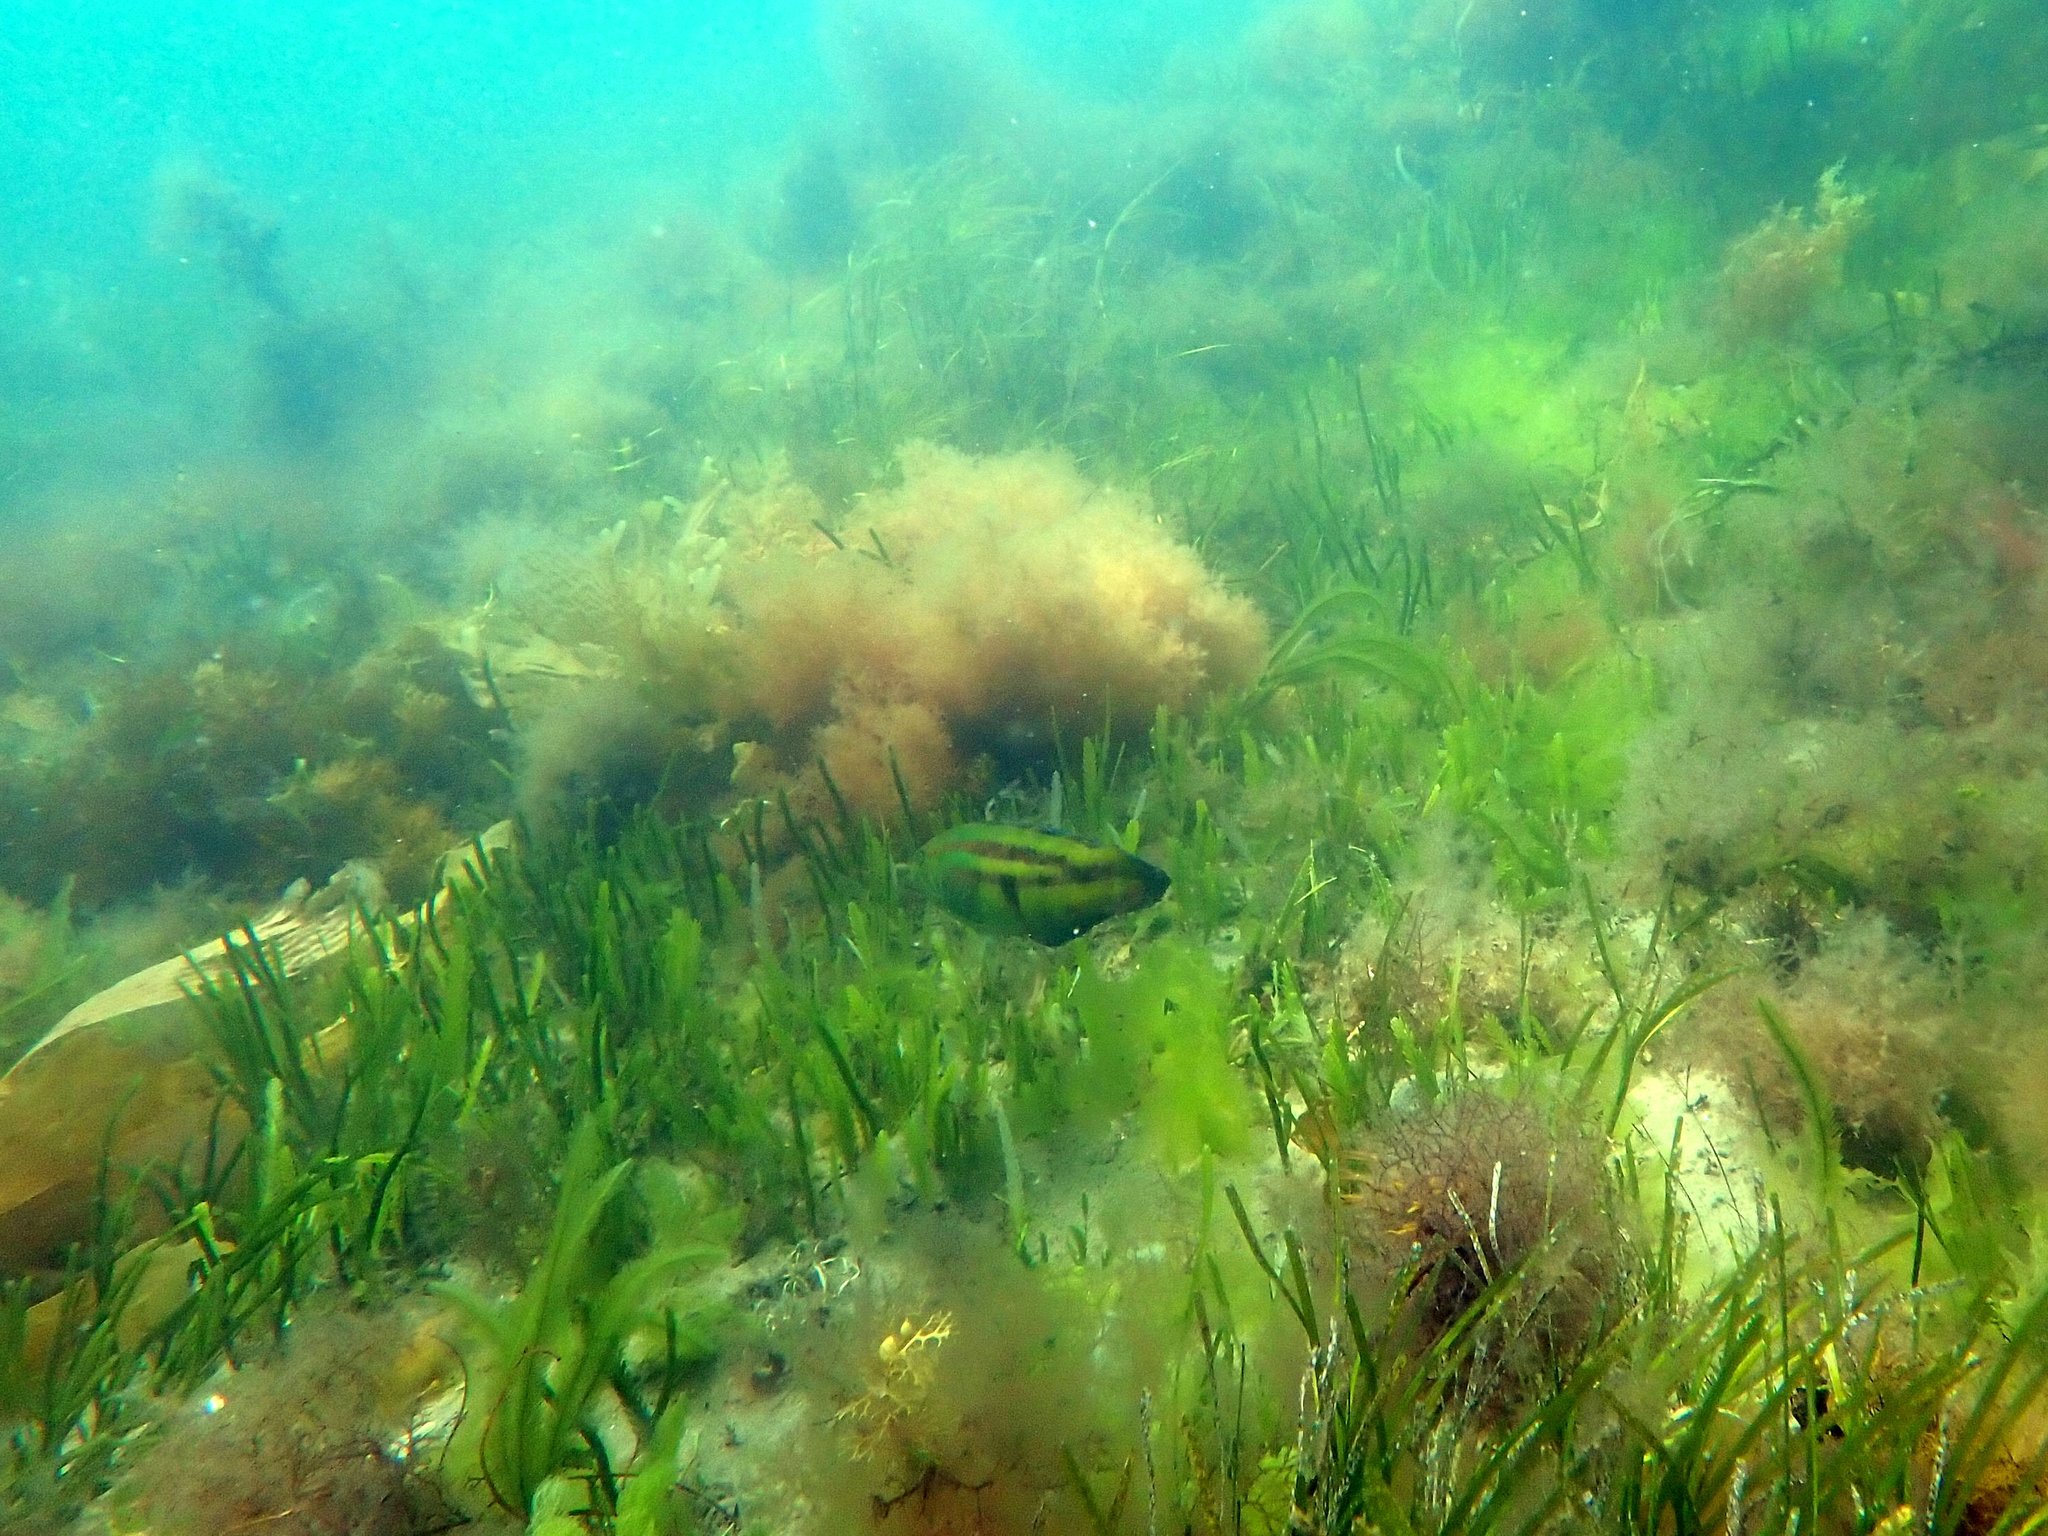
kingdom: Animalia
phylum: Chordata
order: Perciformes
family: Labridae
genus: Pictilabrus
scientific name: Pictilabrus laticlavius
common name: Patrician wrasse
